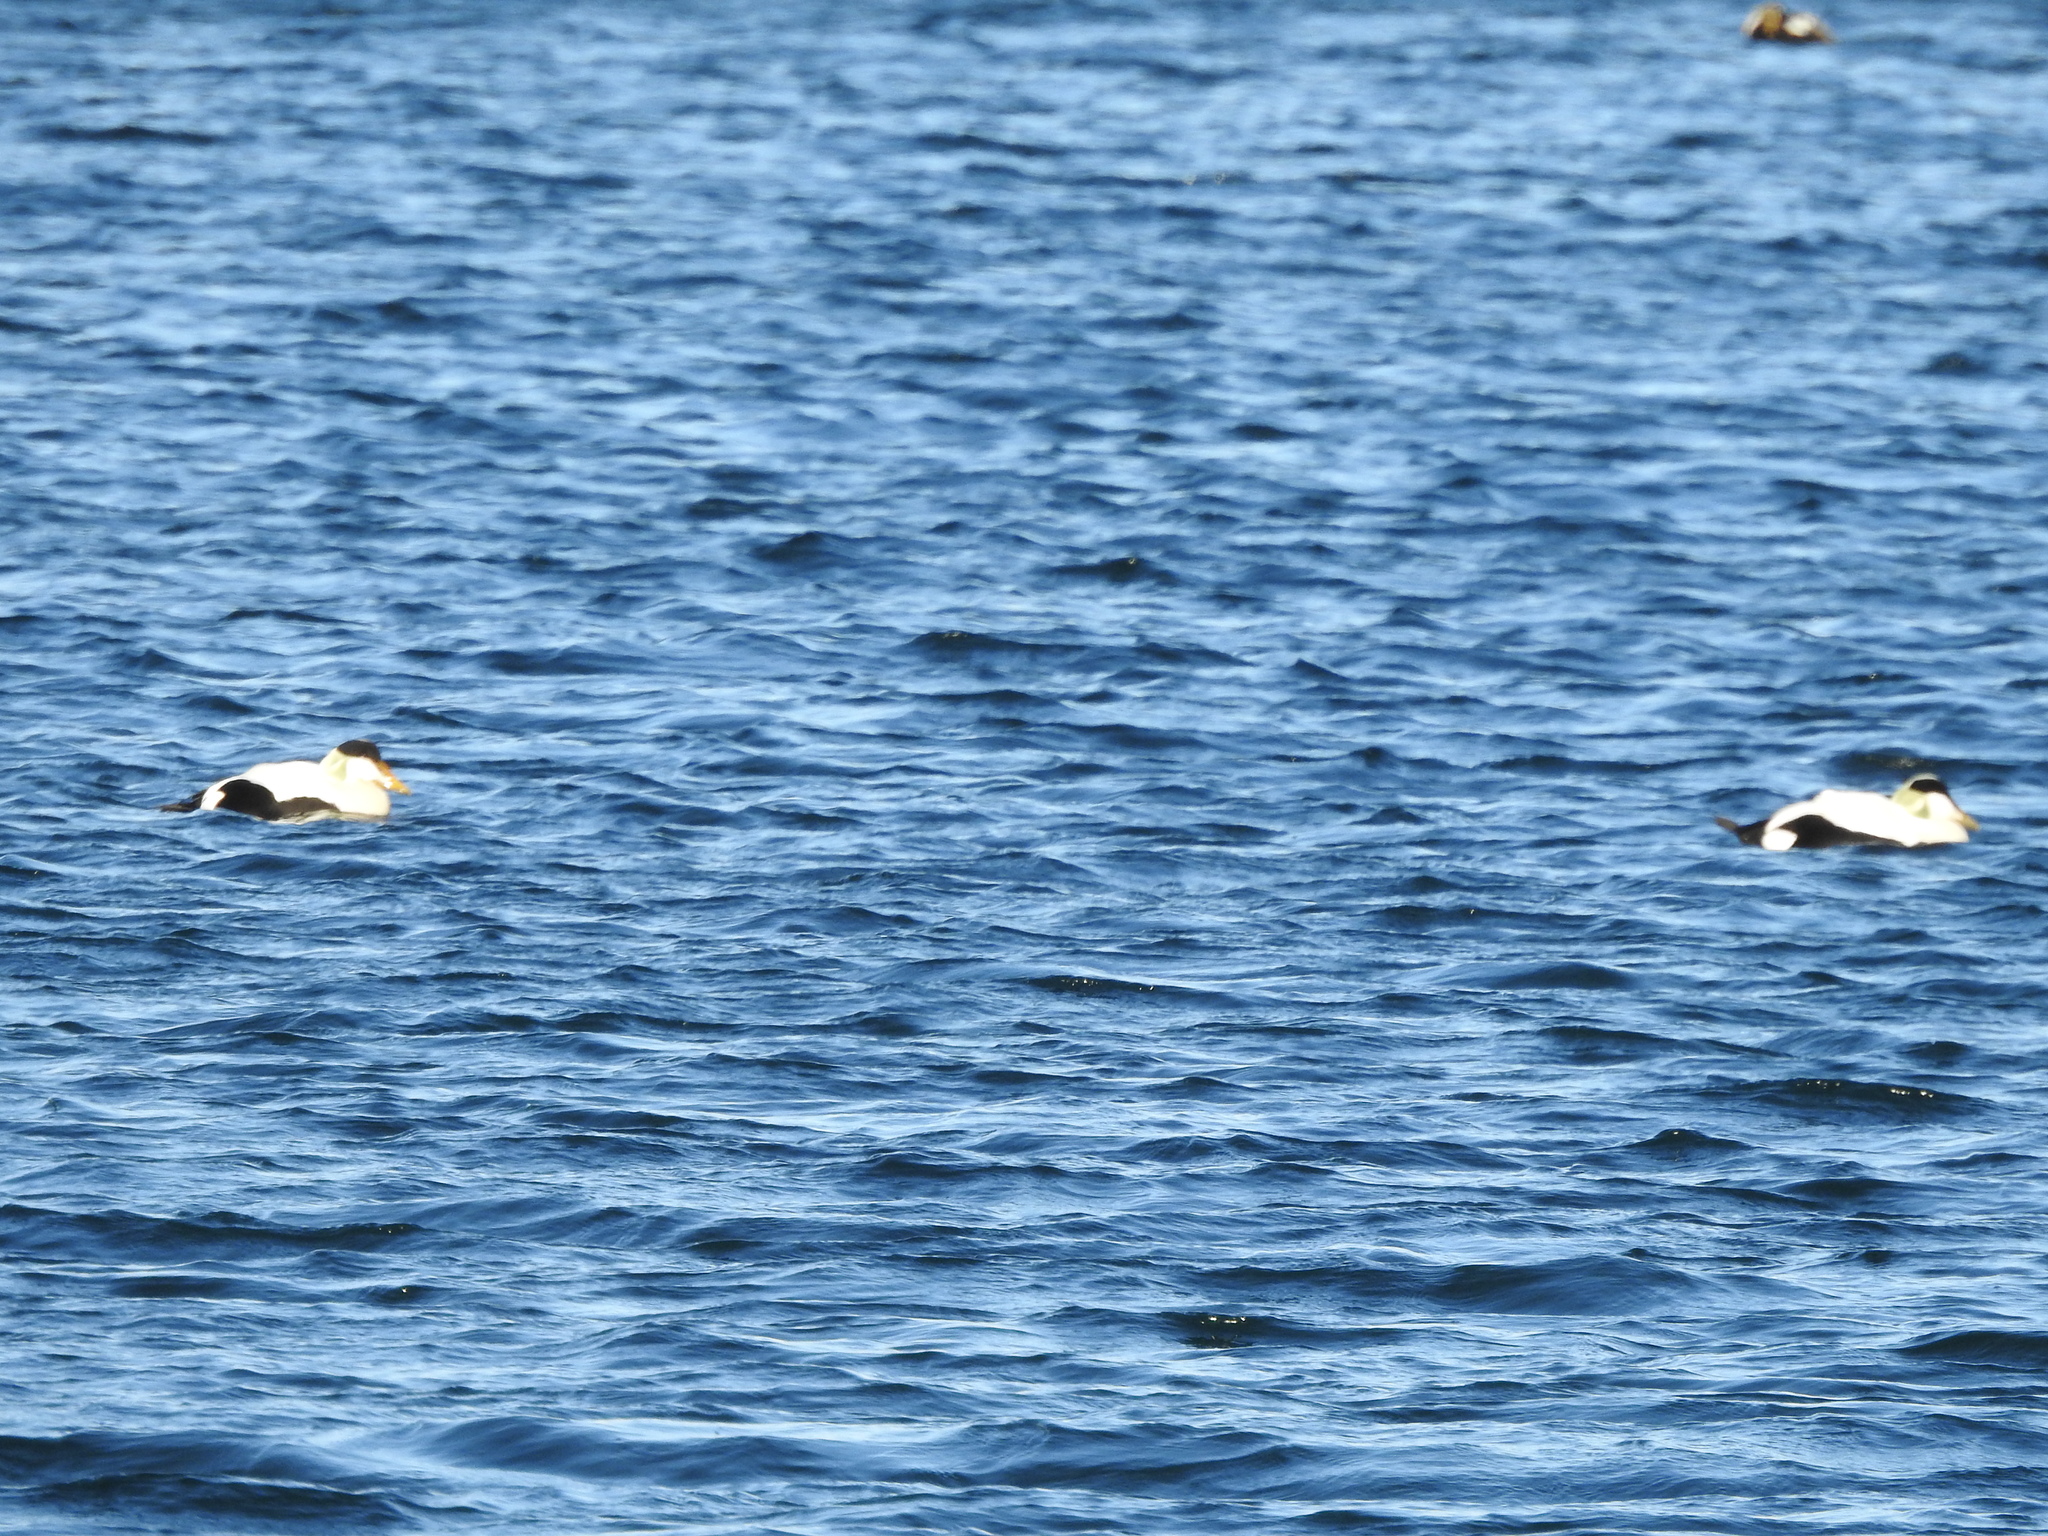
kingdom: Animalia
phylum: Chordata
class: Aves
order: Anseriformes
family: Anatidae
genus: Somateria
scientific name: Somateria mollissima
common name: Common eider
